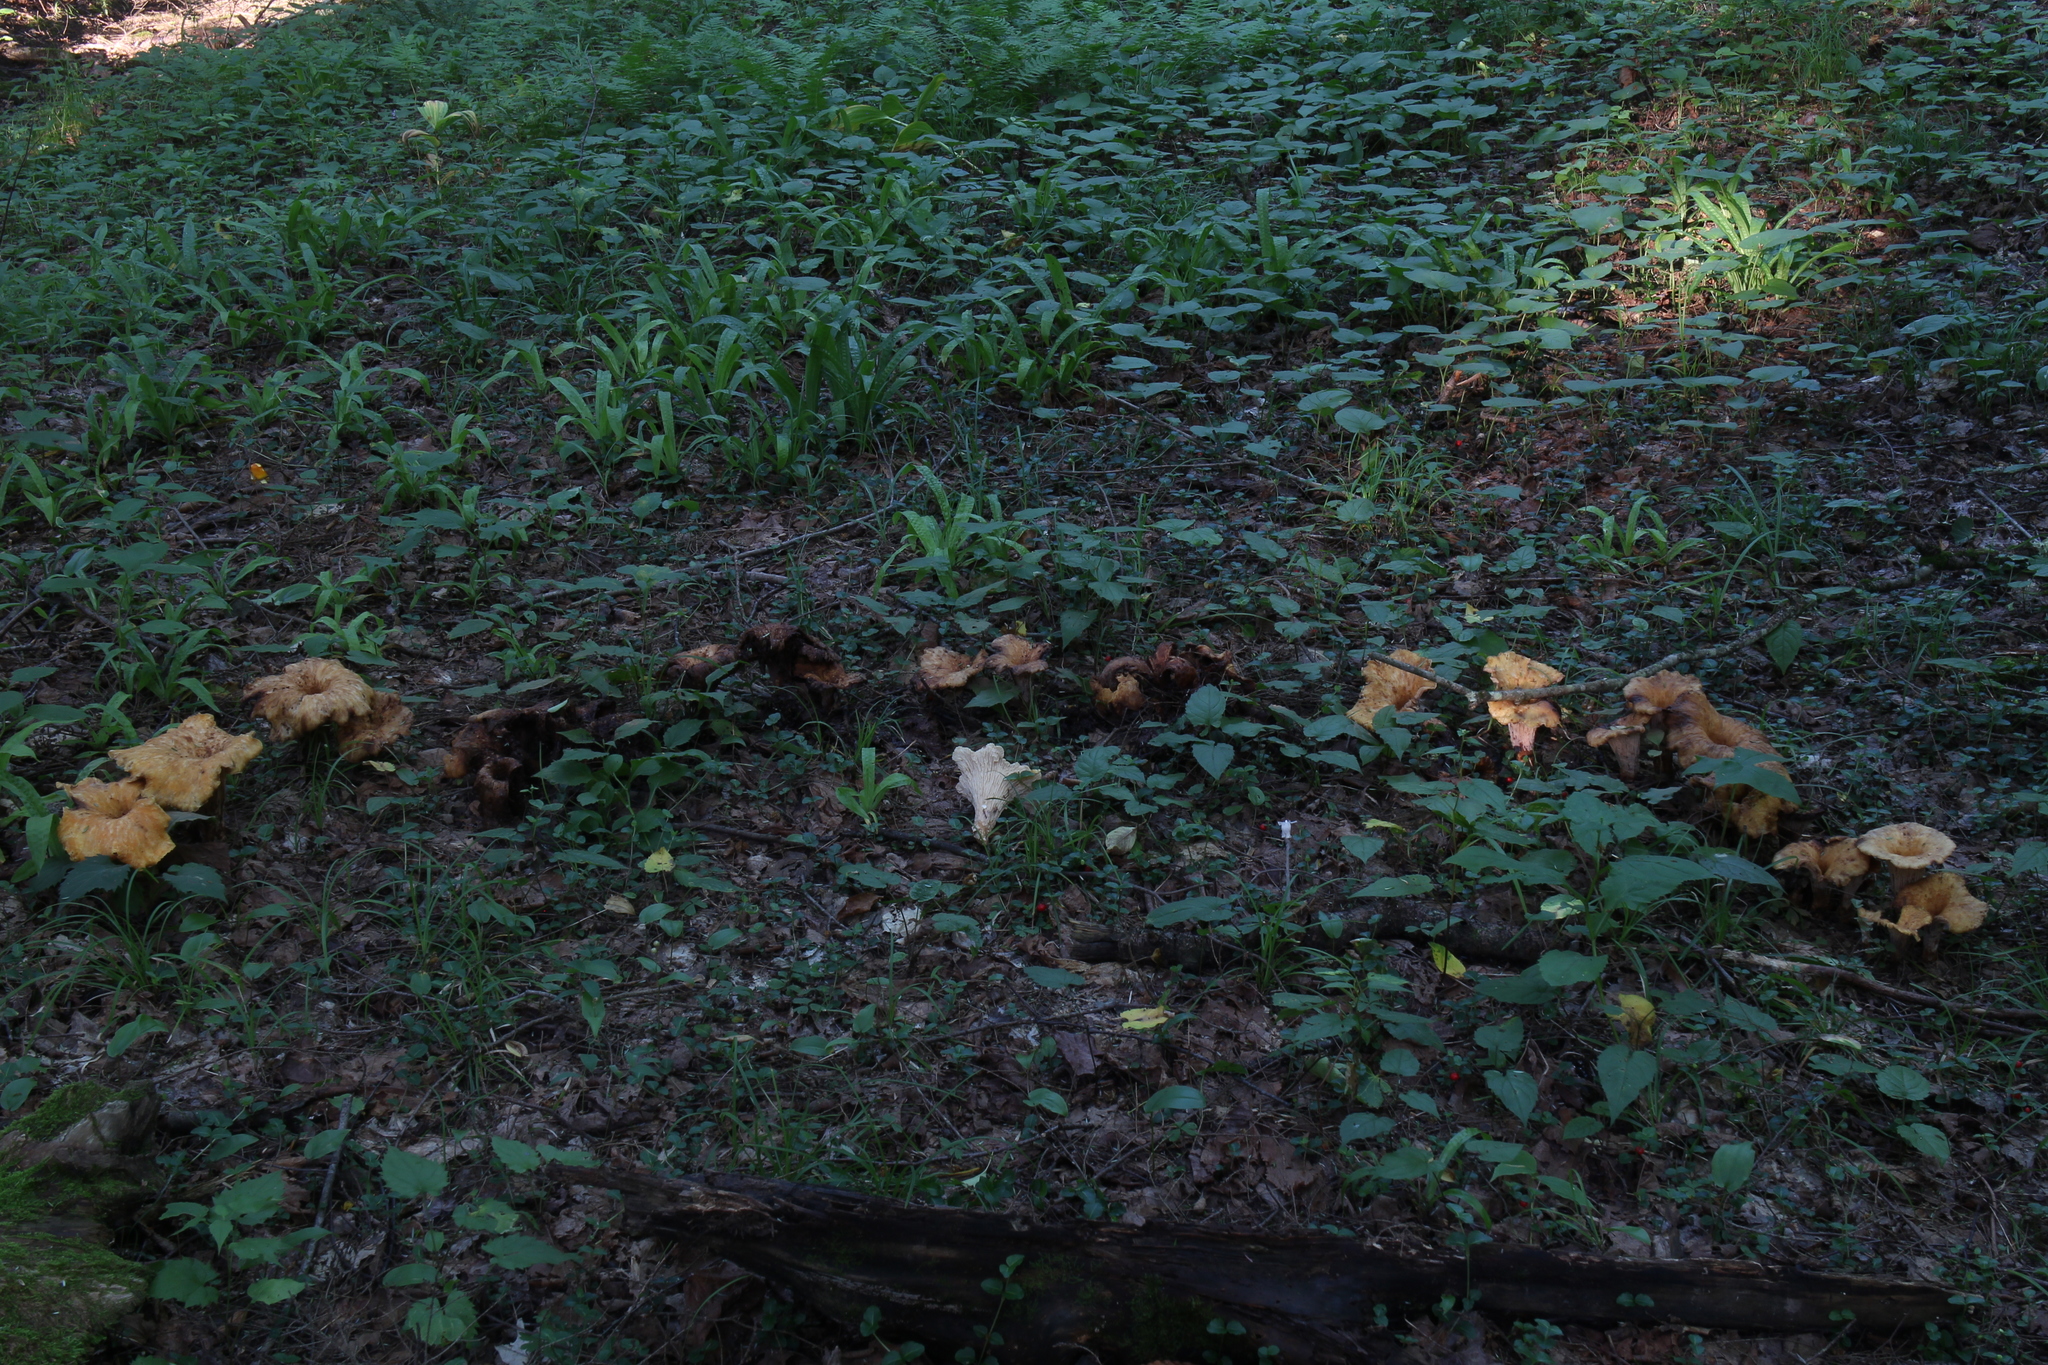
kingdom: Fungi
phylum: Basidiomycota
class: Agaricomycetes
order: Gomphales
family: Gomphaceae
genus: Turbinellus
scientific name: Turbinellus floccosus
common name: Scaly chanterelle
